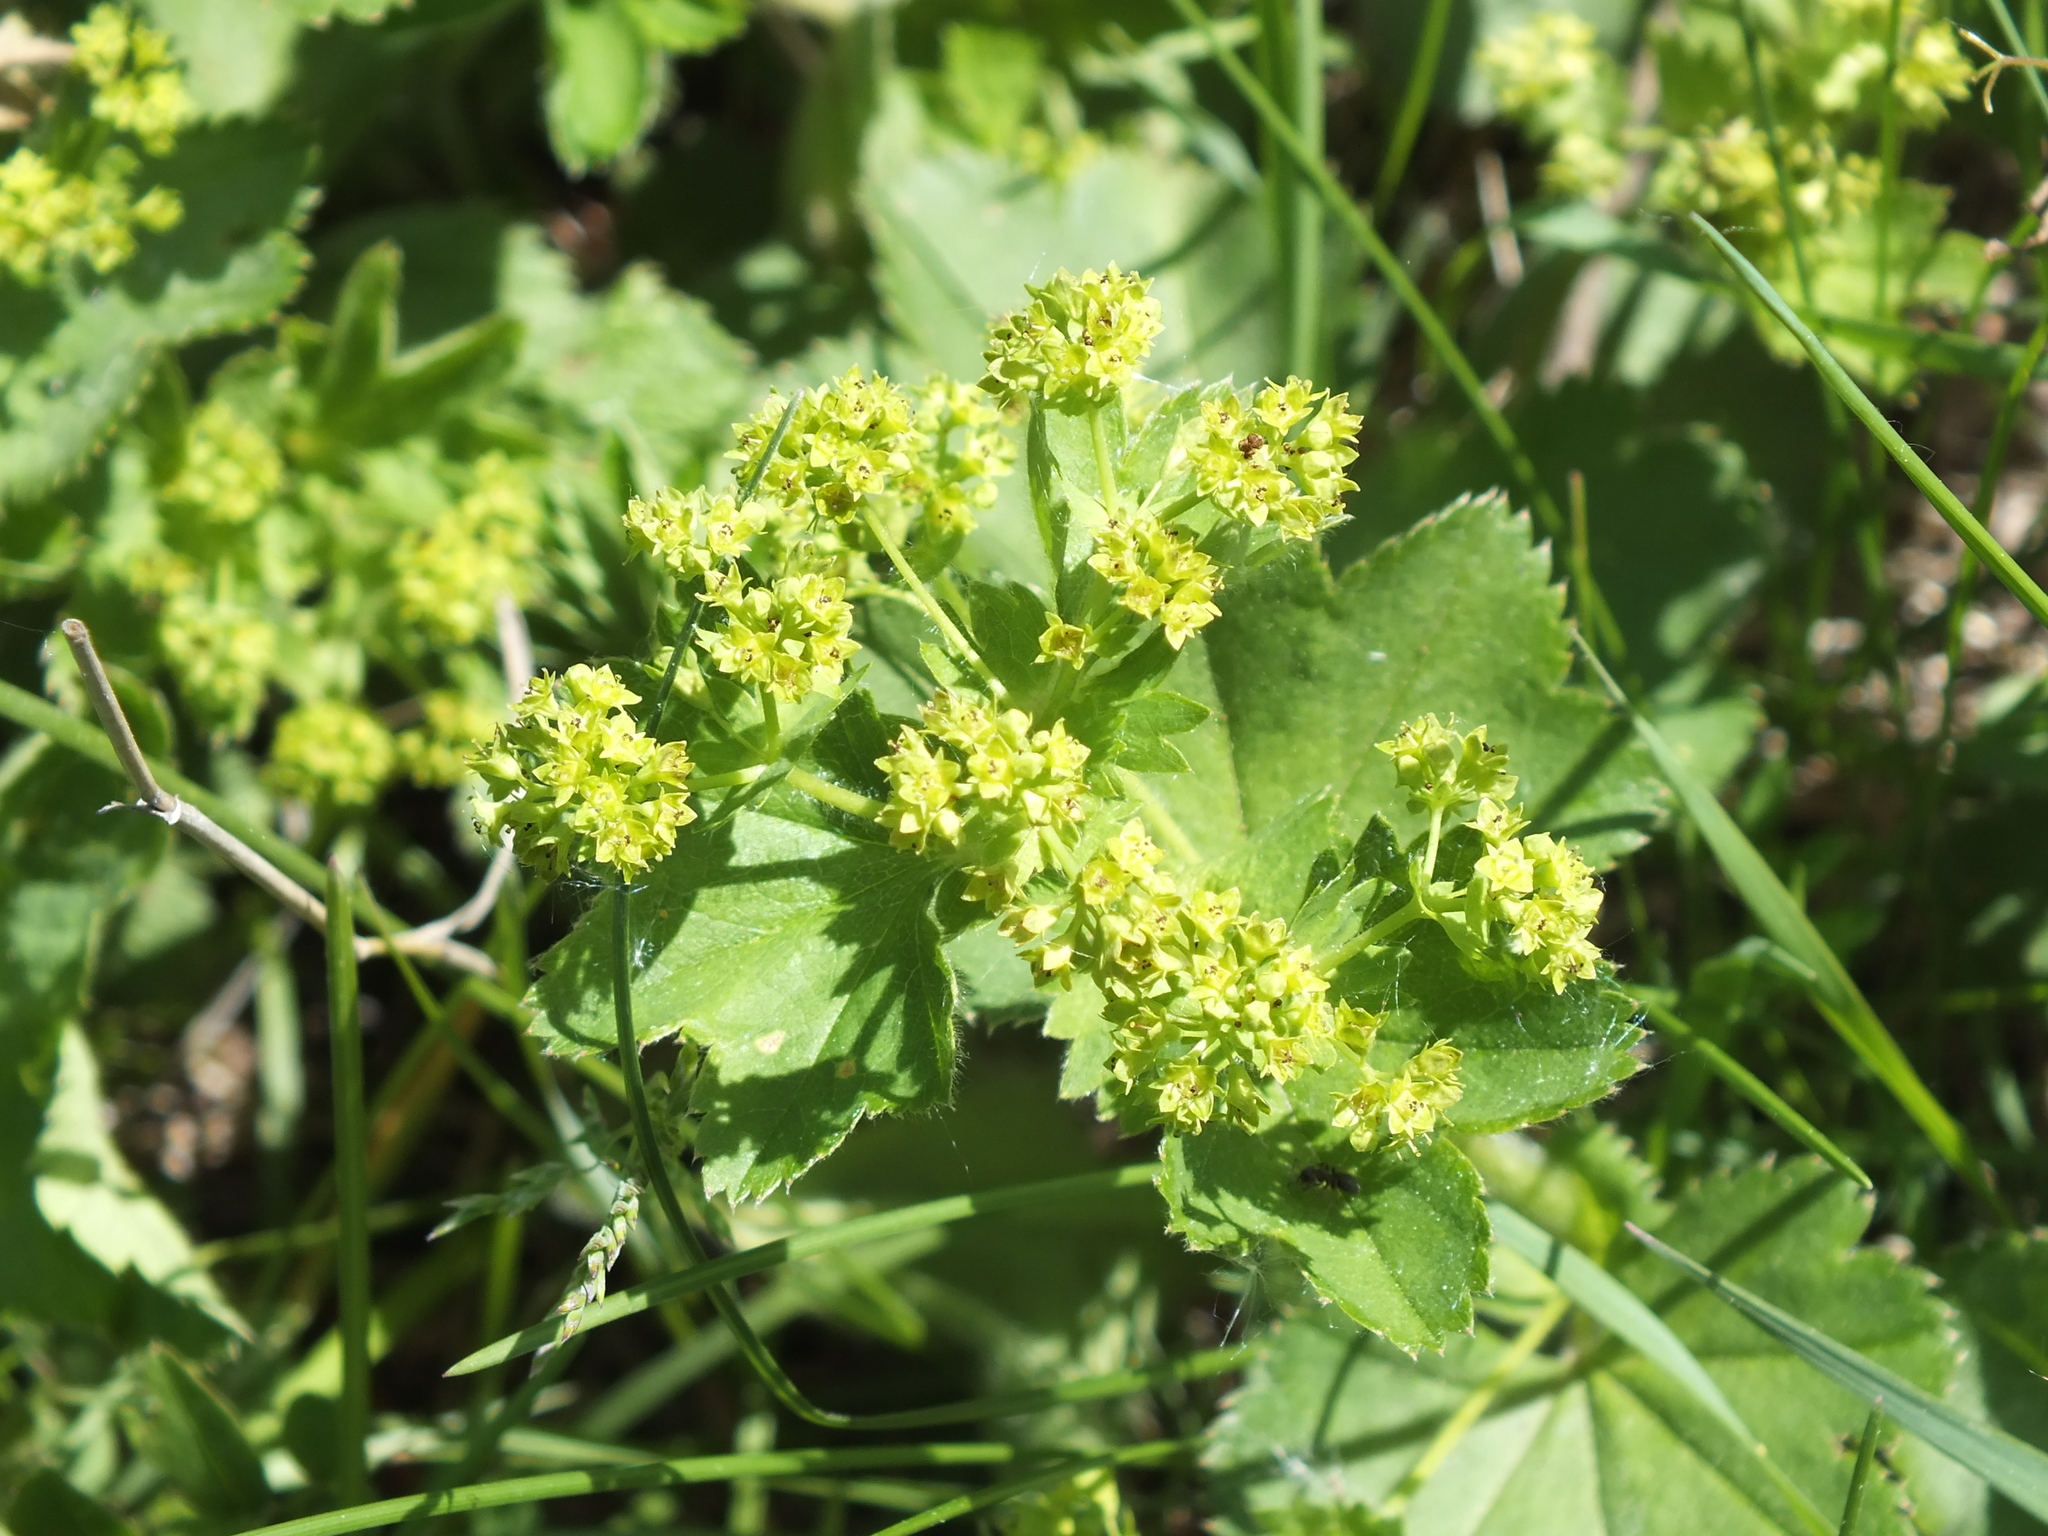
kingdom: Plantae
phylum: Tracheophyta
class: Magnoliopsida
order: Rosales
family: Rosaceae
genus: Alchemilla
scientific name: Alchemilla pachyphylla
